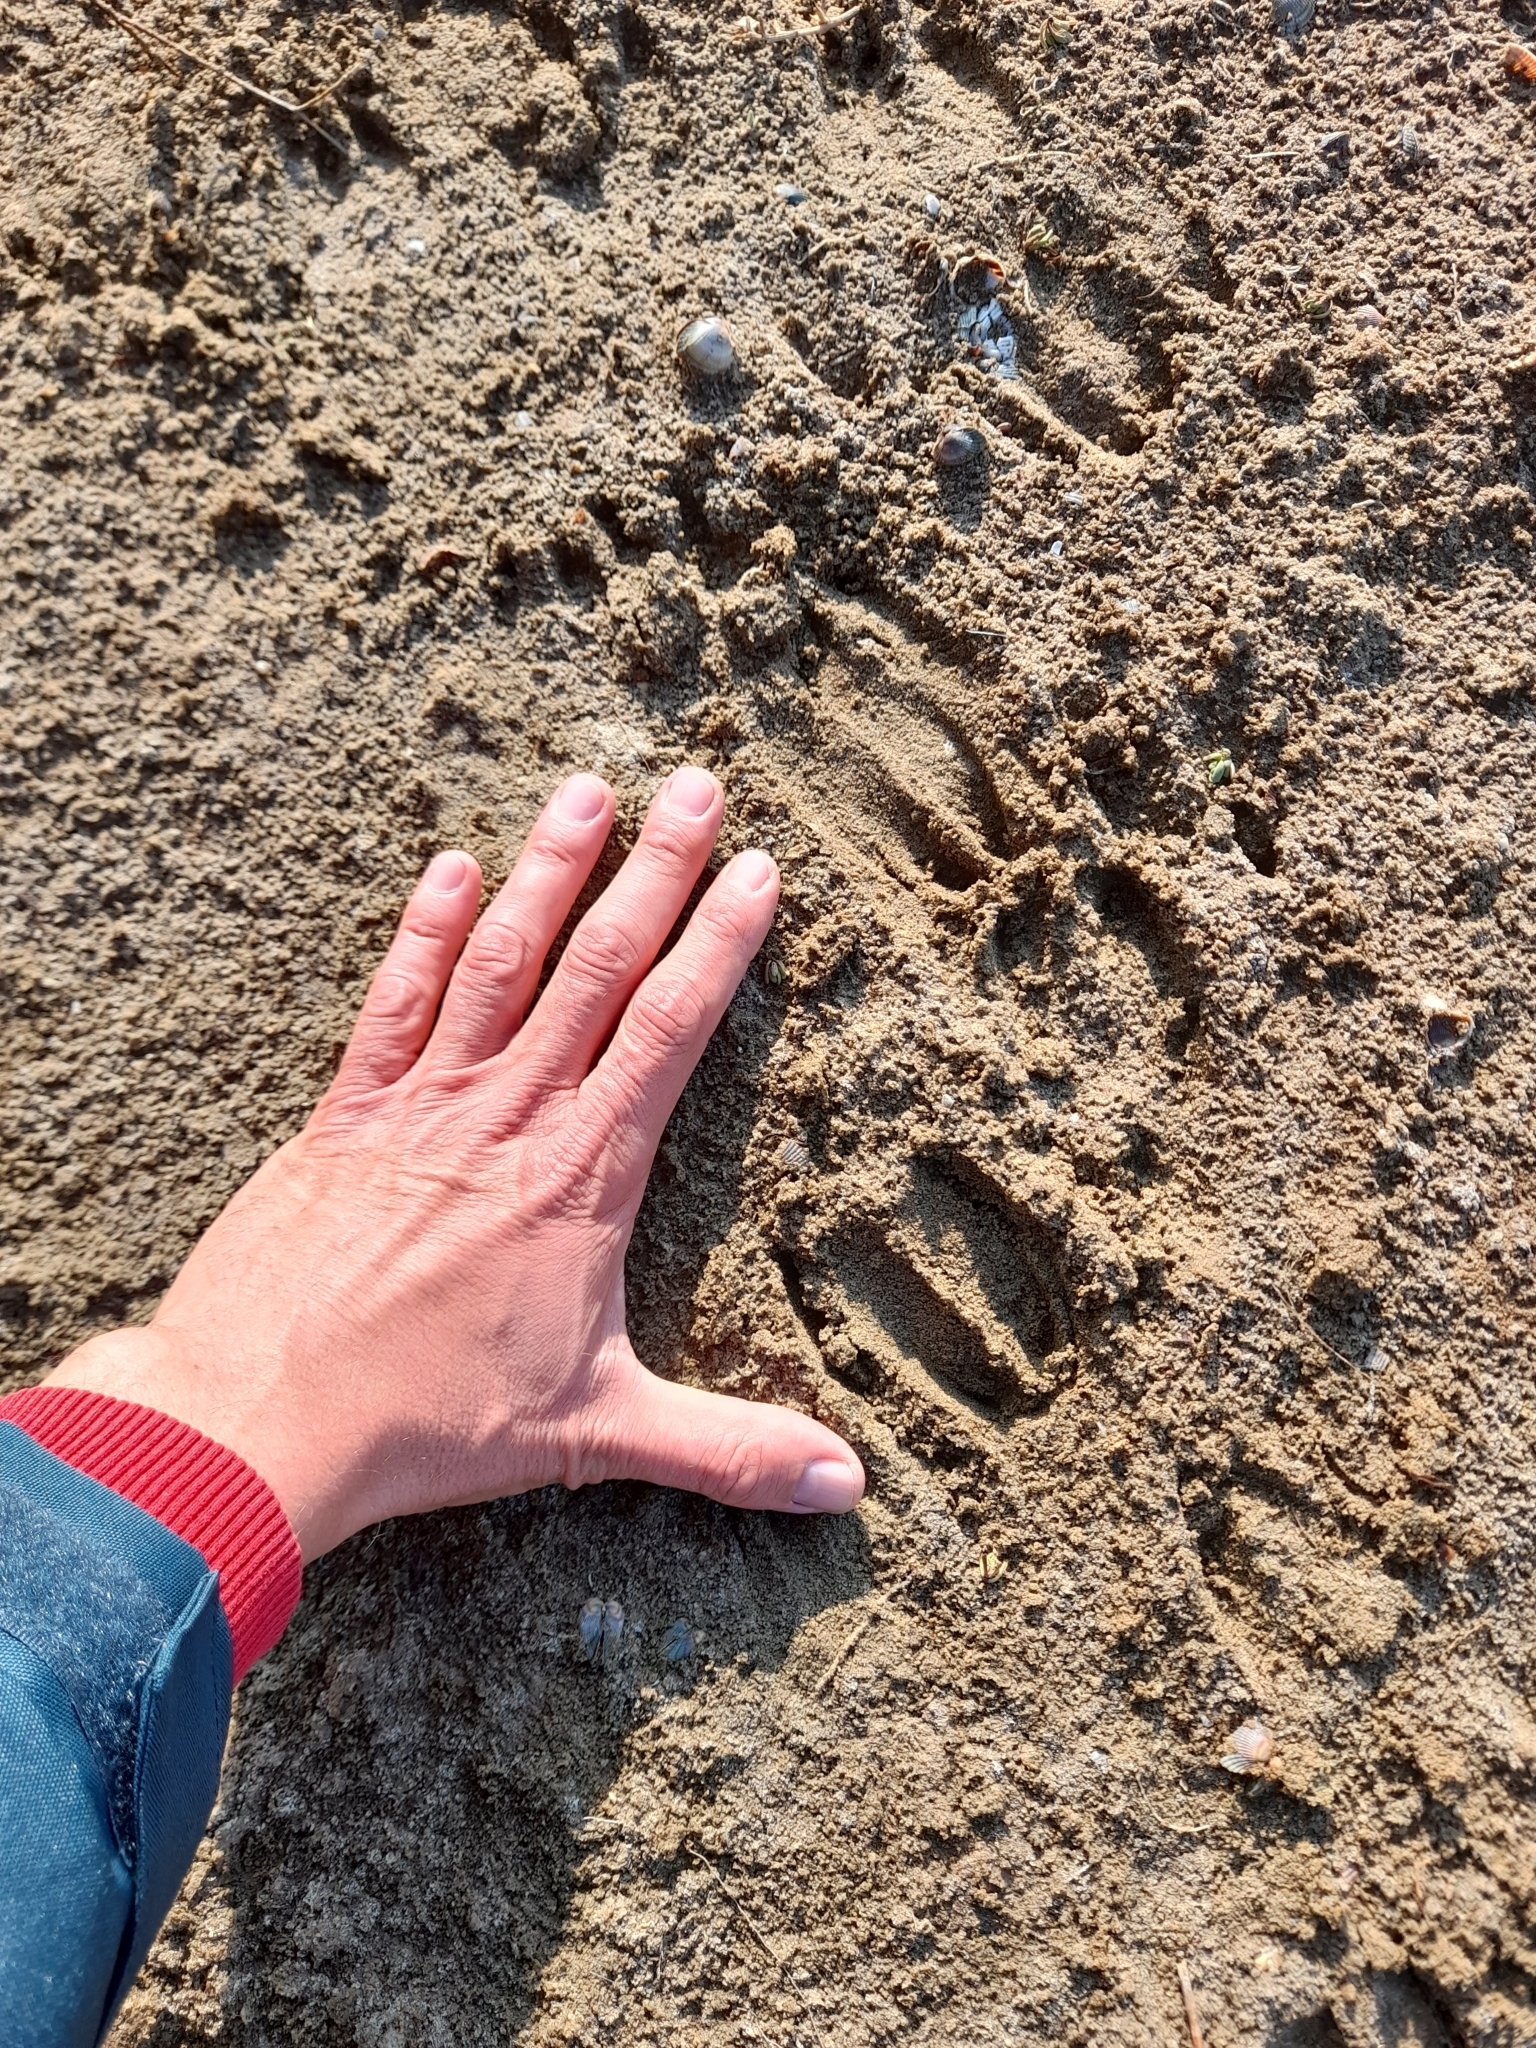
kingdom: Animalia
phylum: Chordata
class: Mammalia
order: Artiodactyla
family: Suidae
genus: Sus
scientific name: Sus scrofa
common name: Wild boar
